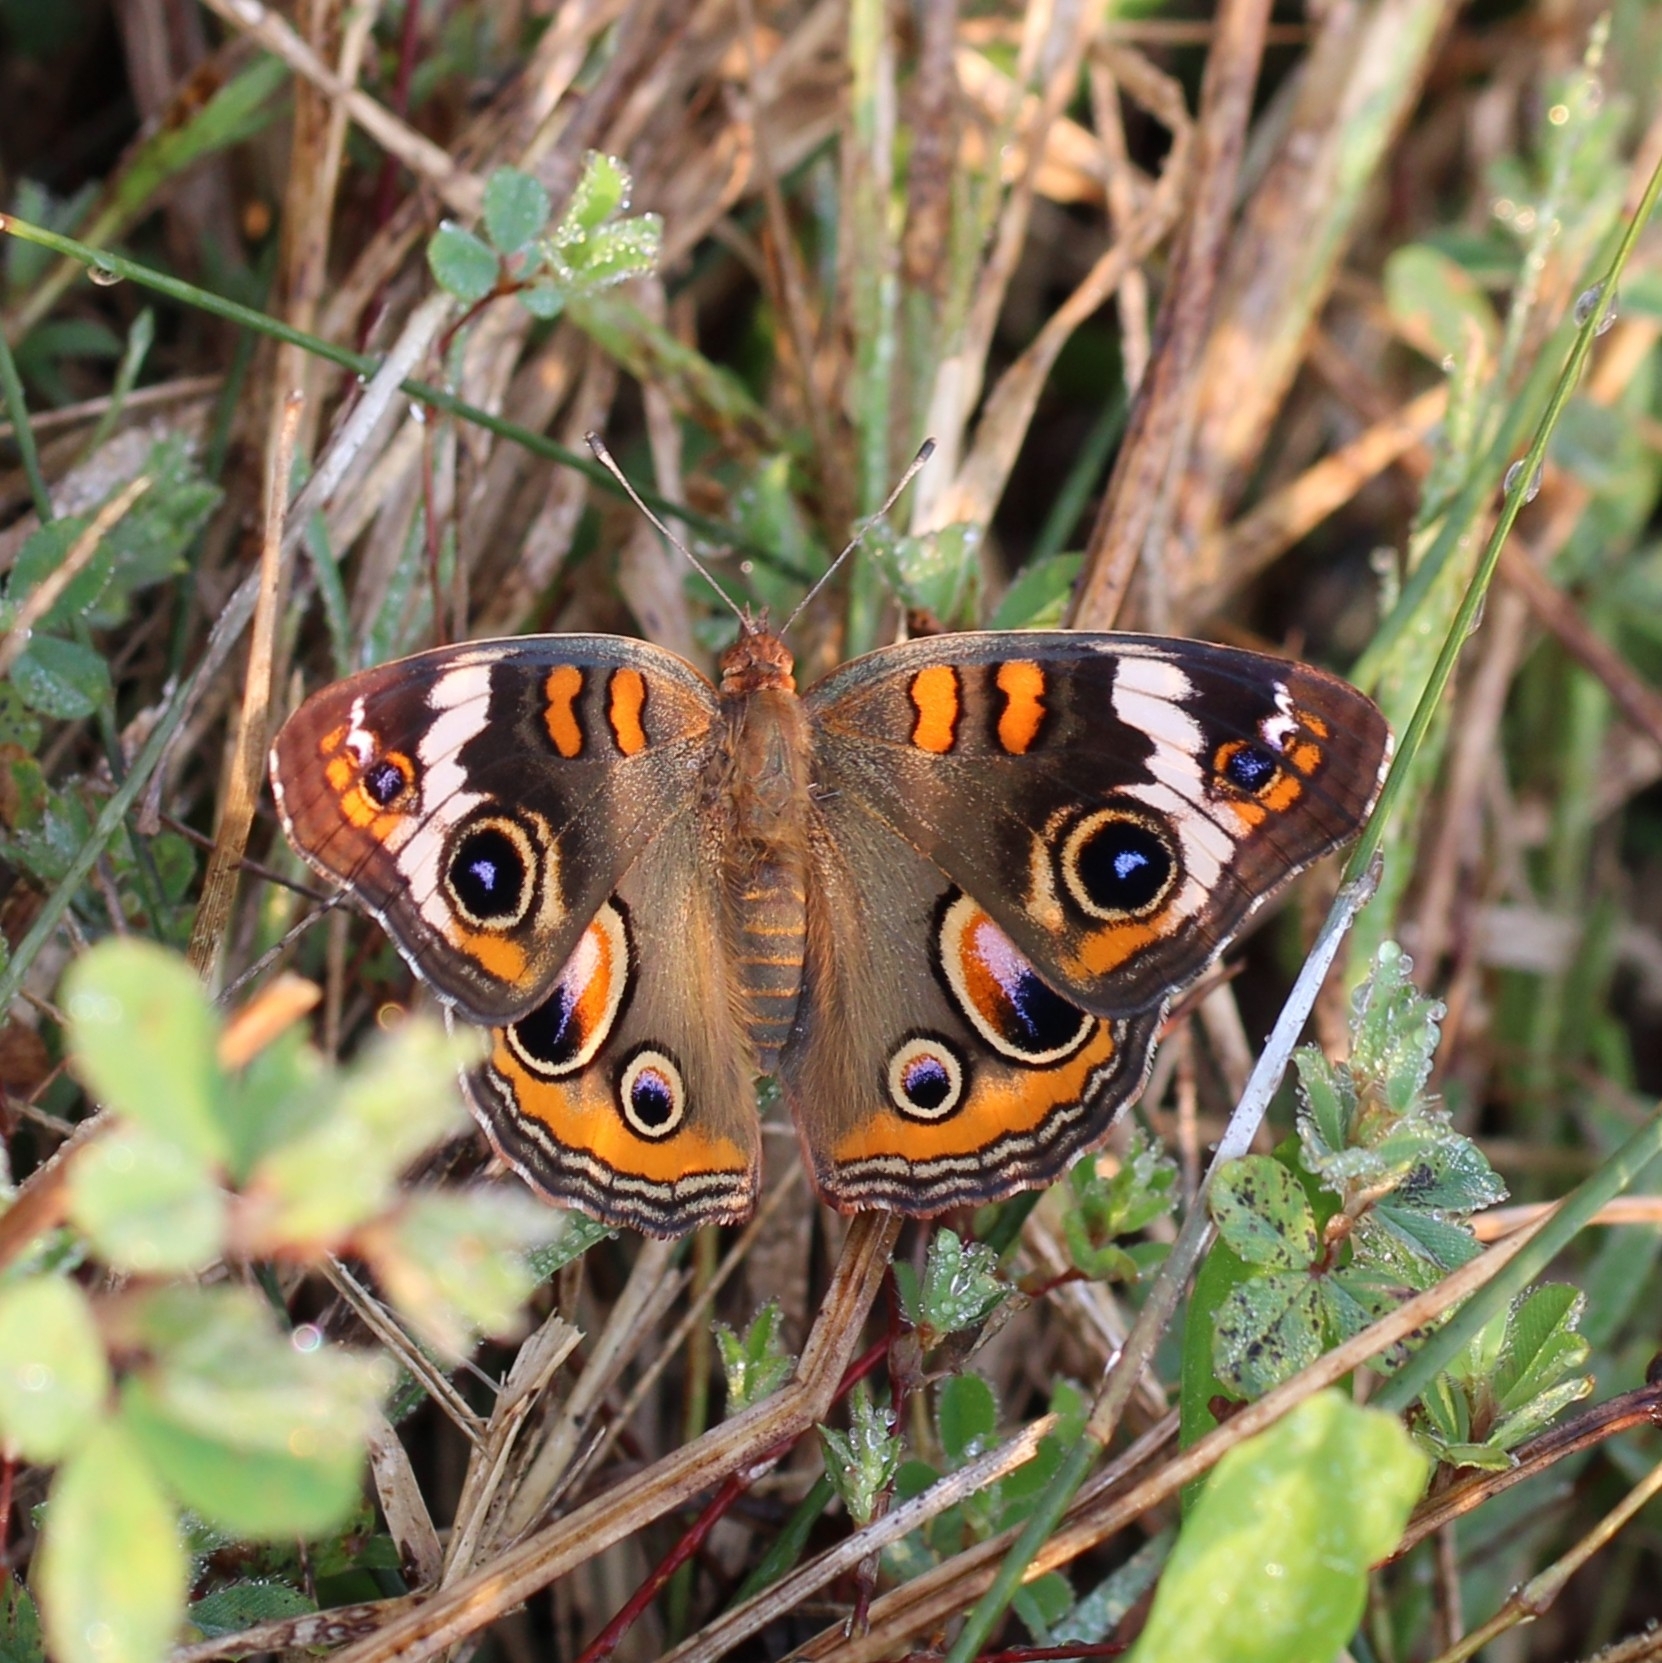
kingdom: Animalia
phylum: Arthropoda
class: Insecta
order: Lepidoptera
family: Nymphalidae
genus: Junonia
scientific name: Junonia coenia
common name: Common buckeye
